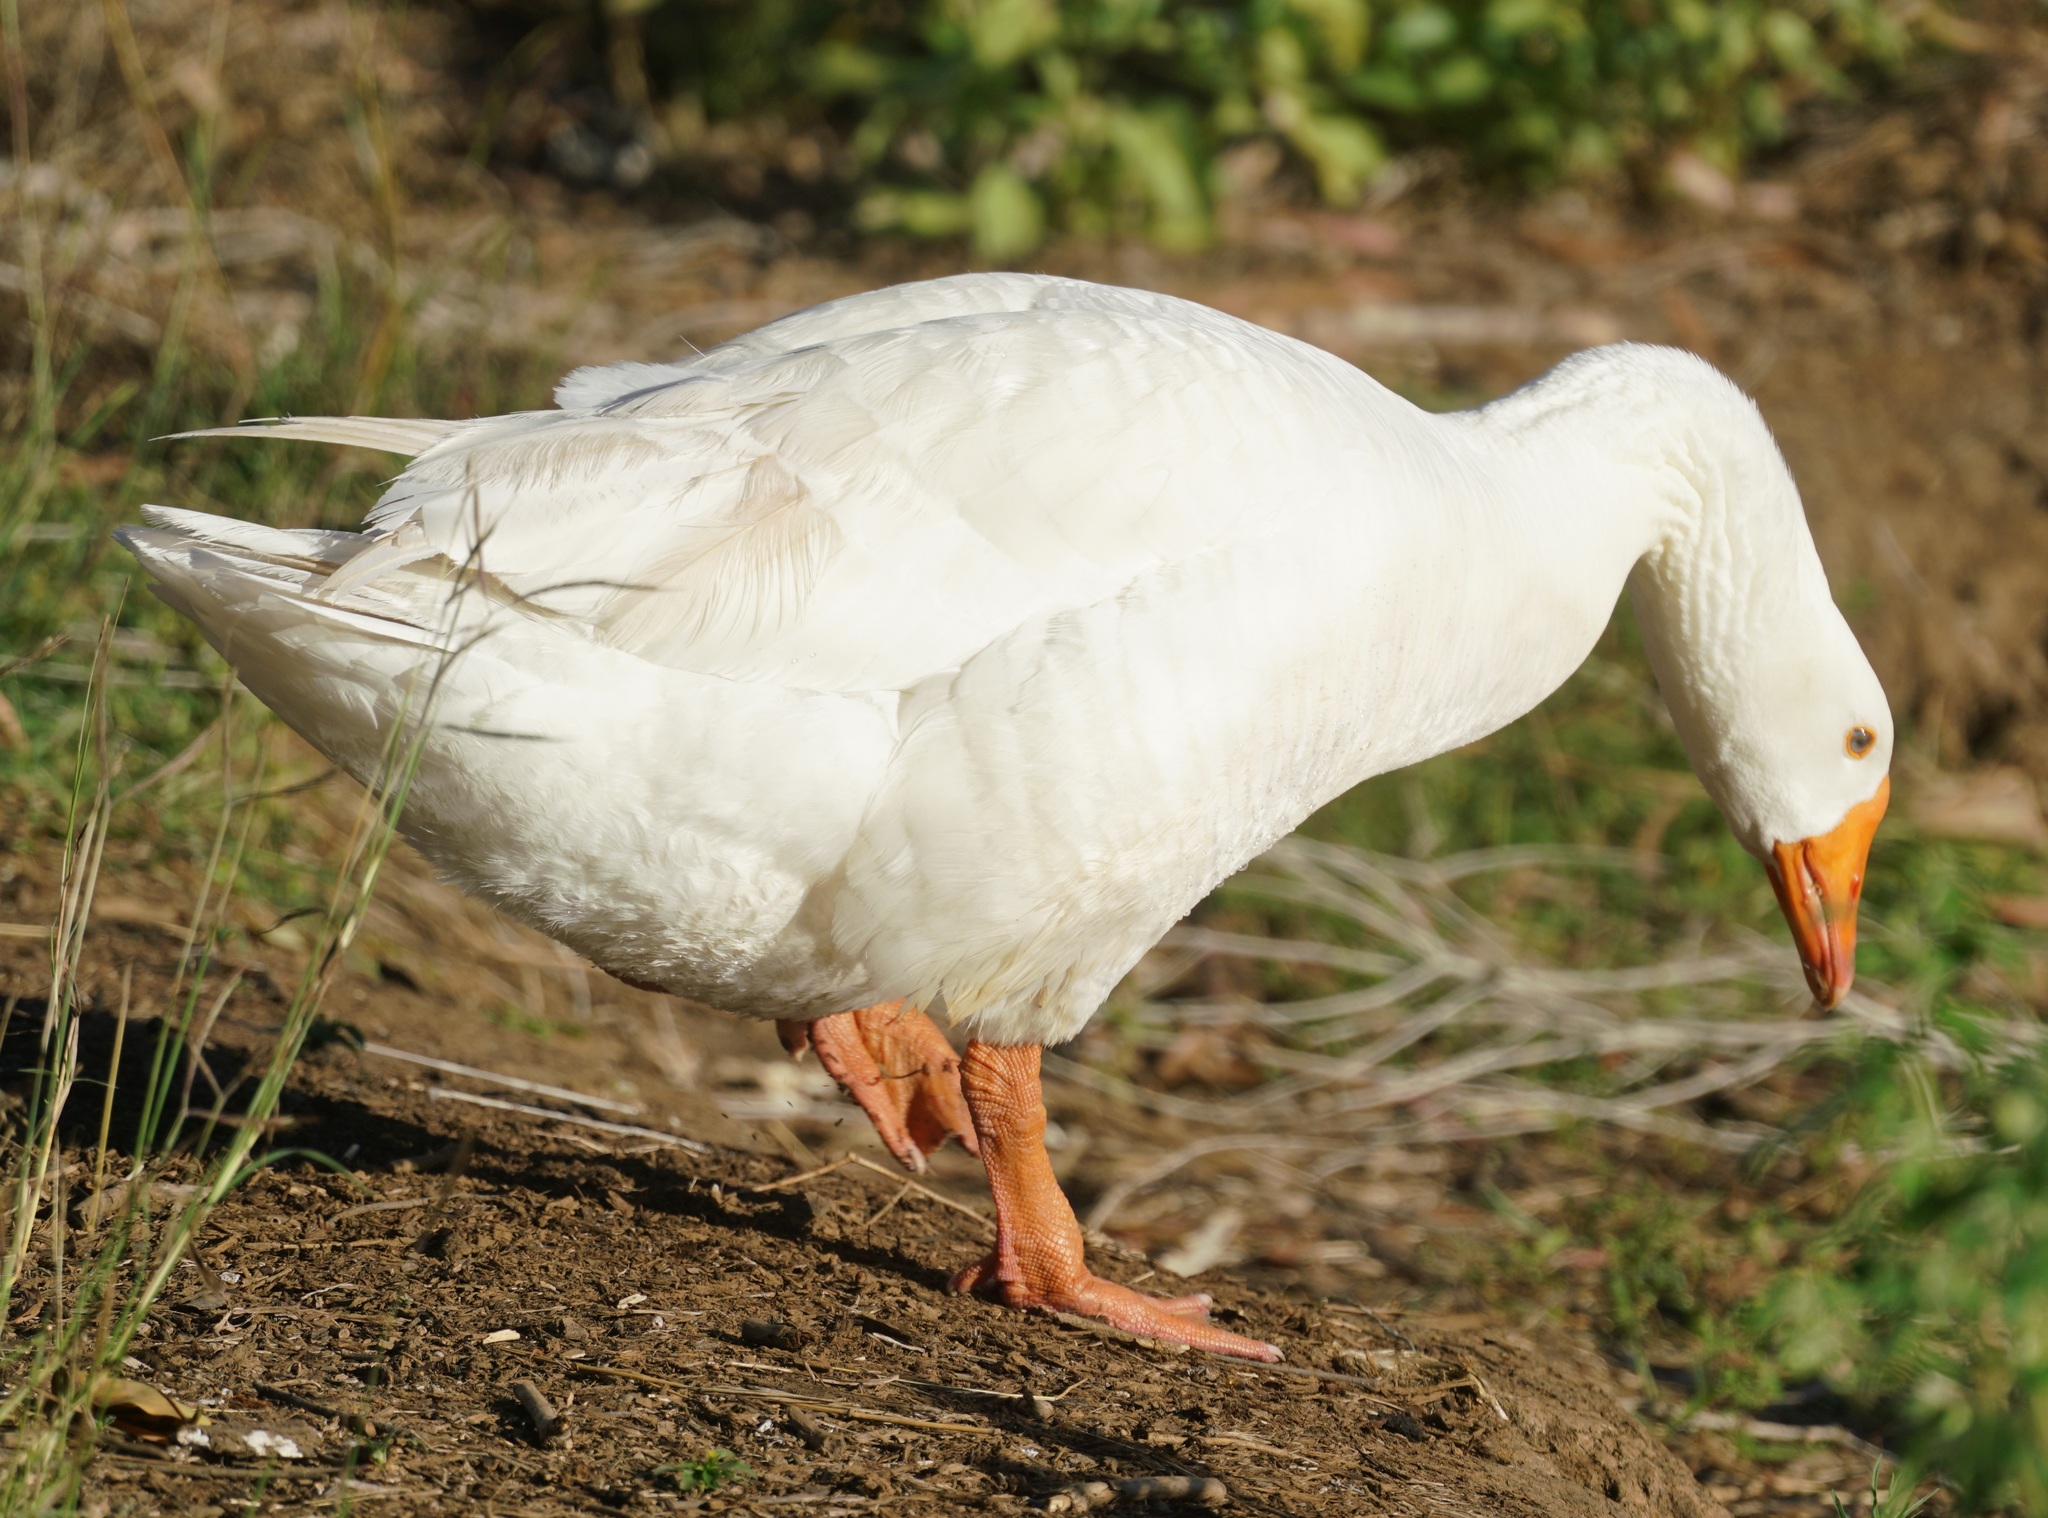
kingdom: Animalia
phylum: Chordata
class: Aves
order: Anseriformes
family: Anatidae
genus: Anser
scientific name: Anser anser
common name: Greylag goose
